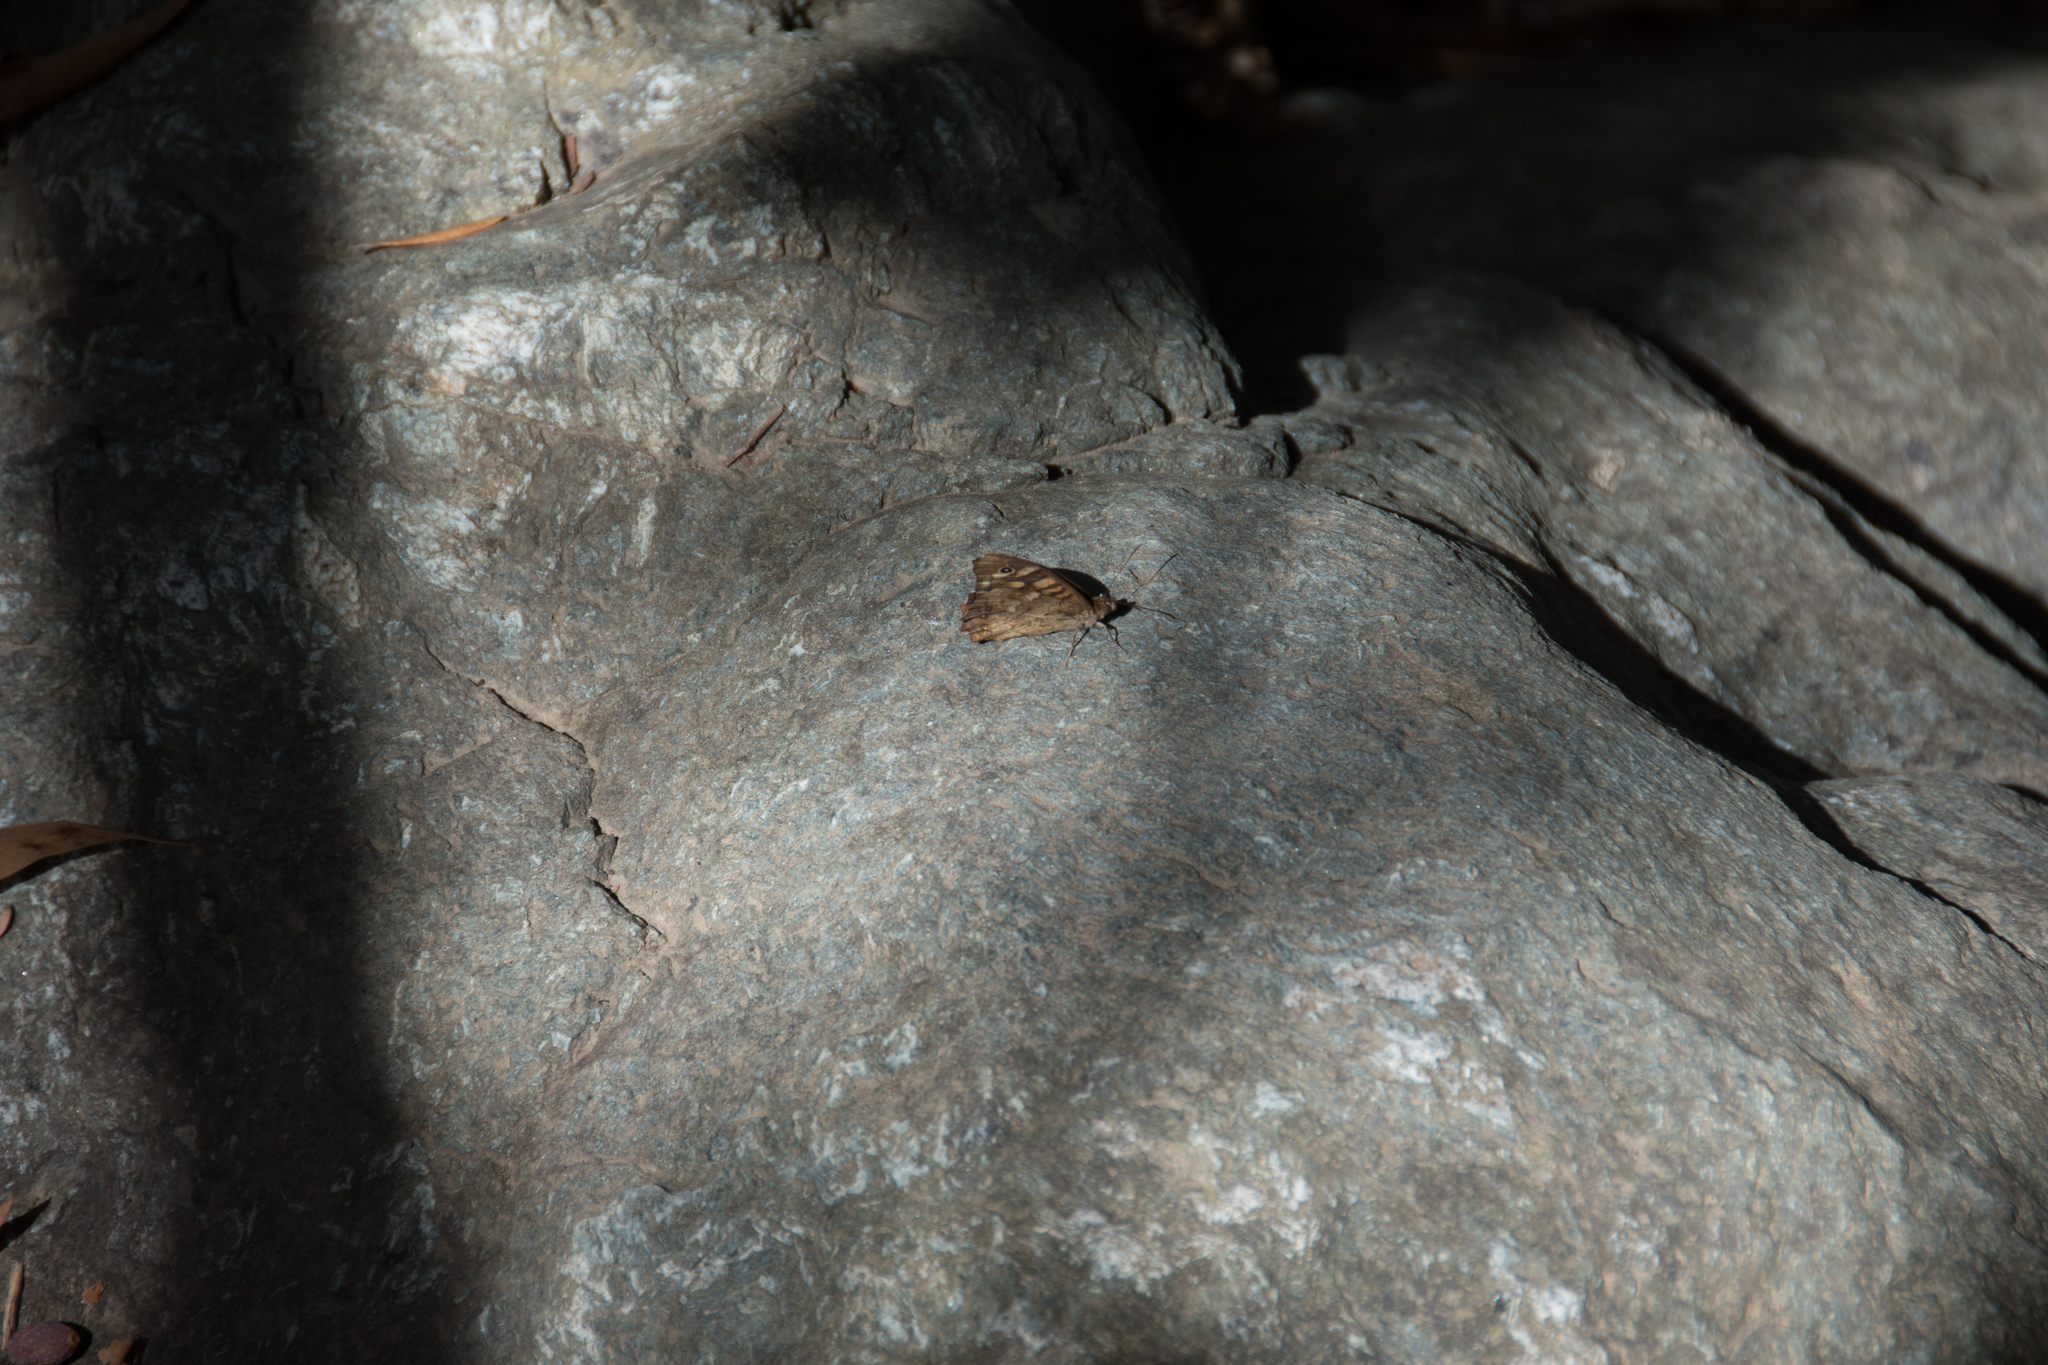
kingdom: Animalia
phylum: Arthropoda
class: Insecta
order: Lepidoptera
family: Nymphalidae
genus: Pararge
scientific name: Pararge aegeria
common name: Speckled wood
